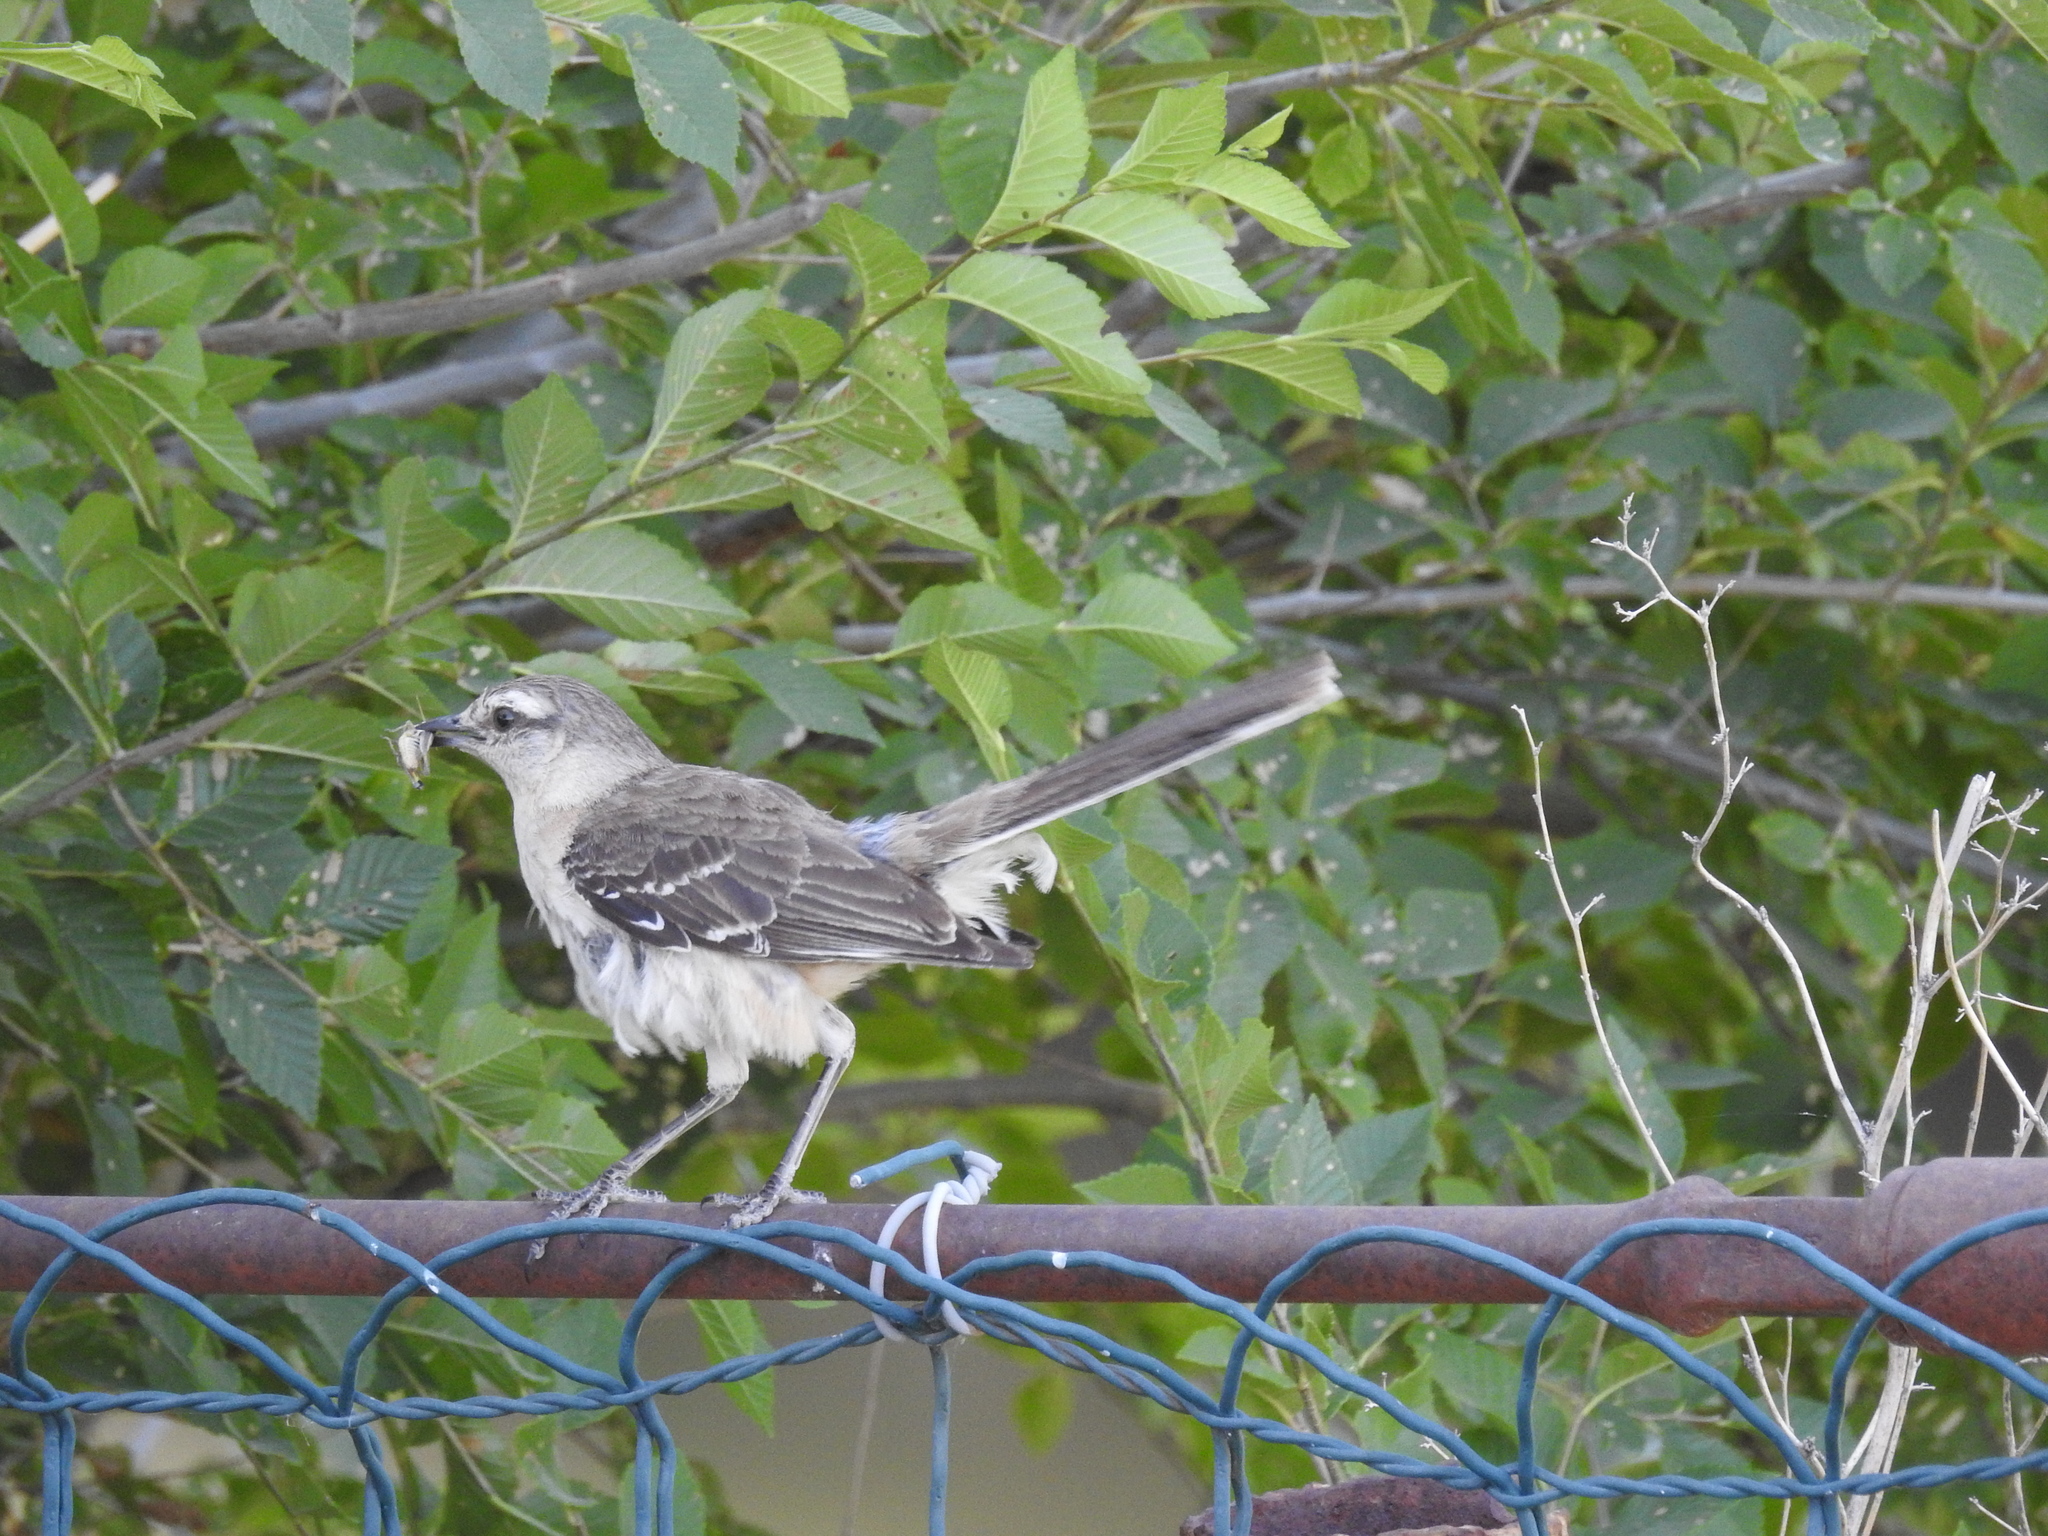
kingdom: Animalia
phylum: Chordata
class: Aves
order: Passeriformes
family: Mimidae
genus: Mimus
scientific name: Mimus saturninus
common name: Chalk-browed mockingbird
